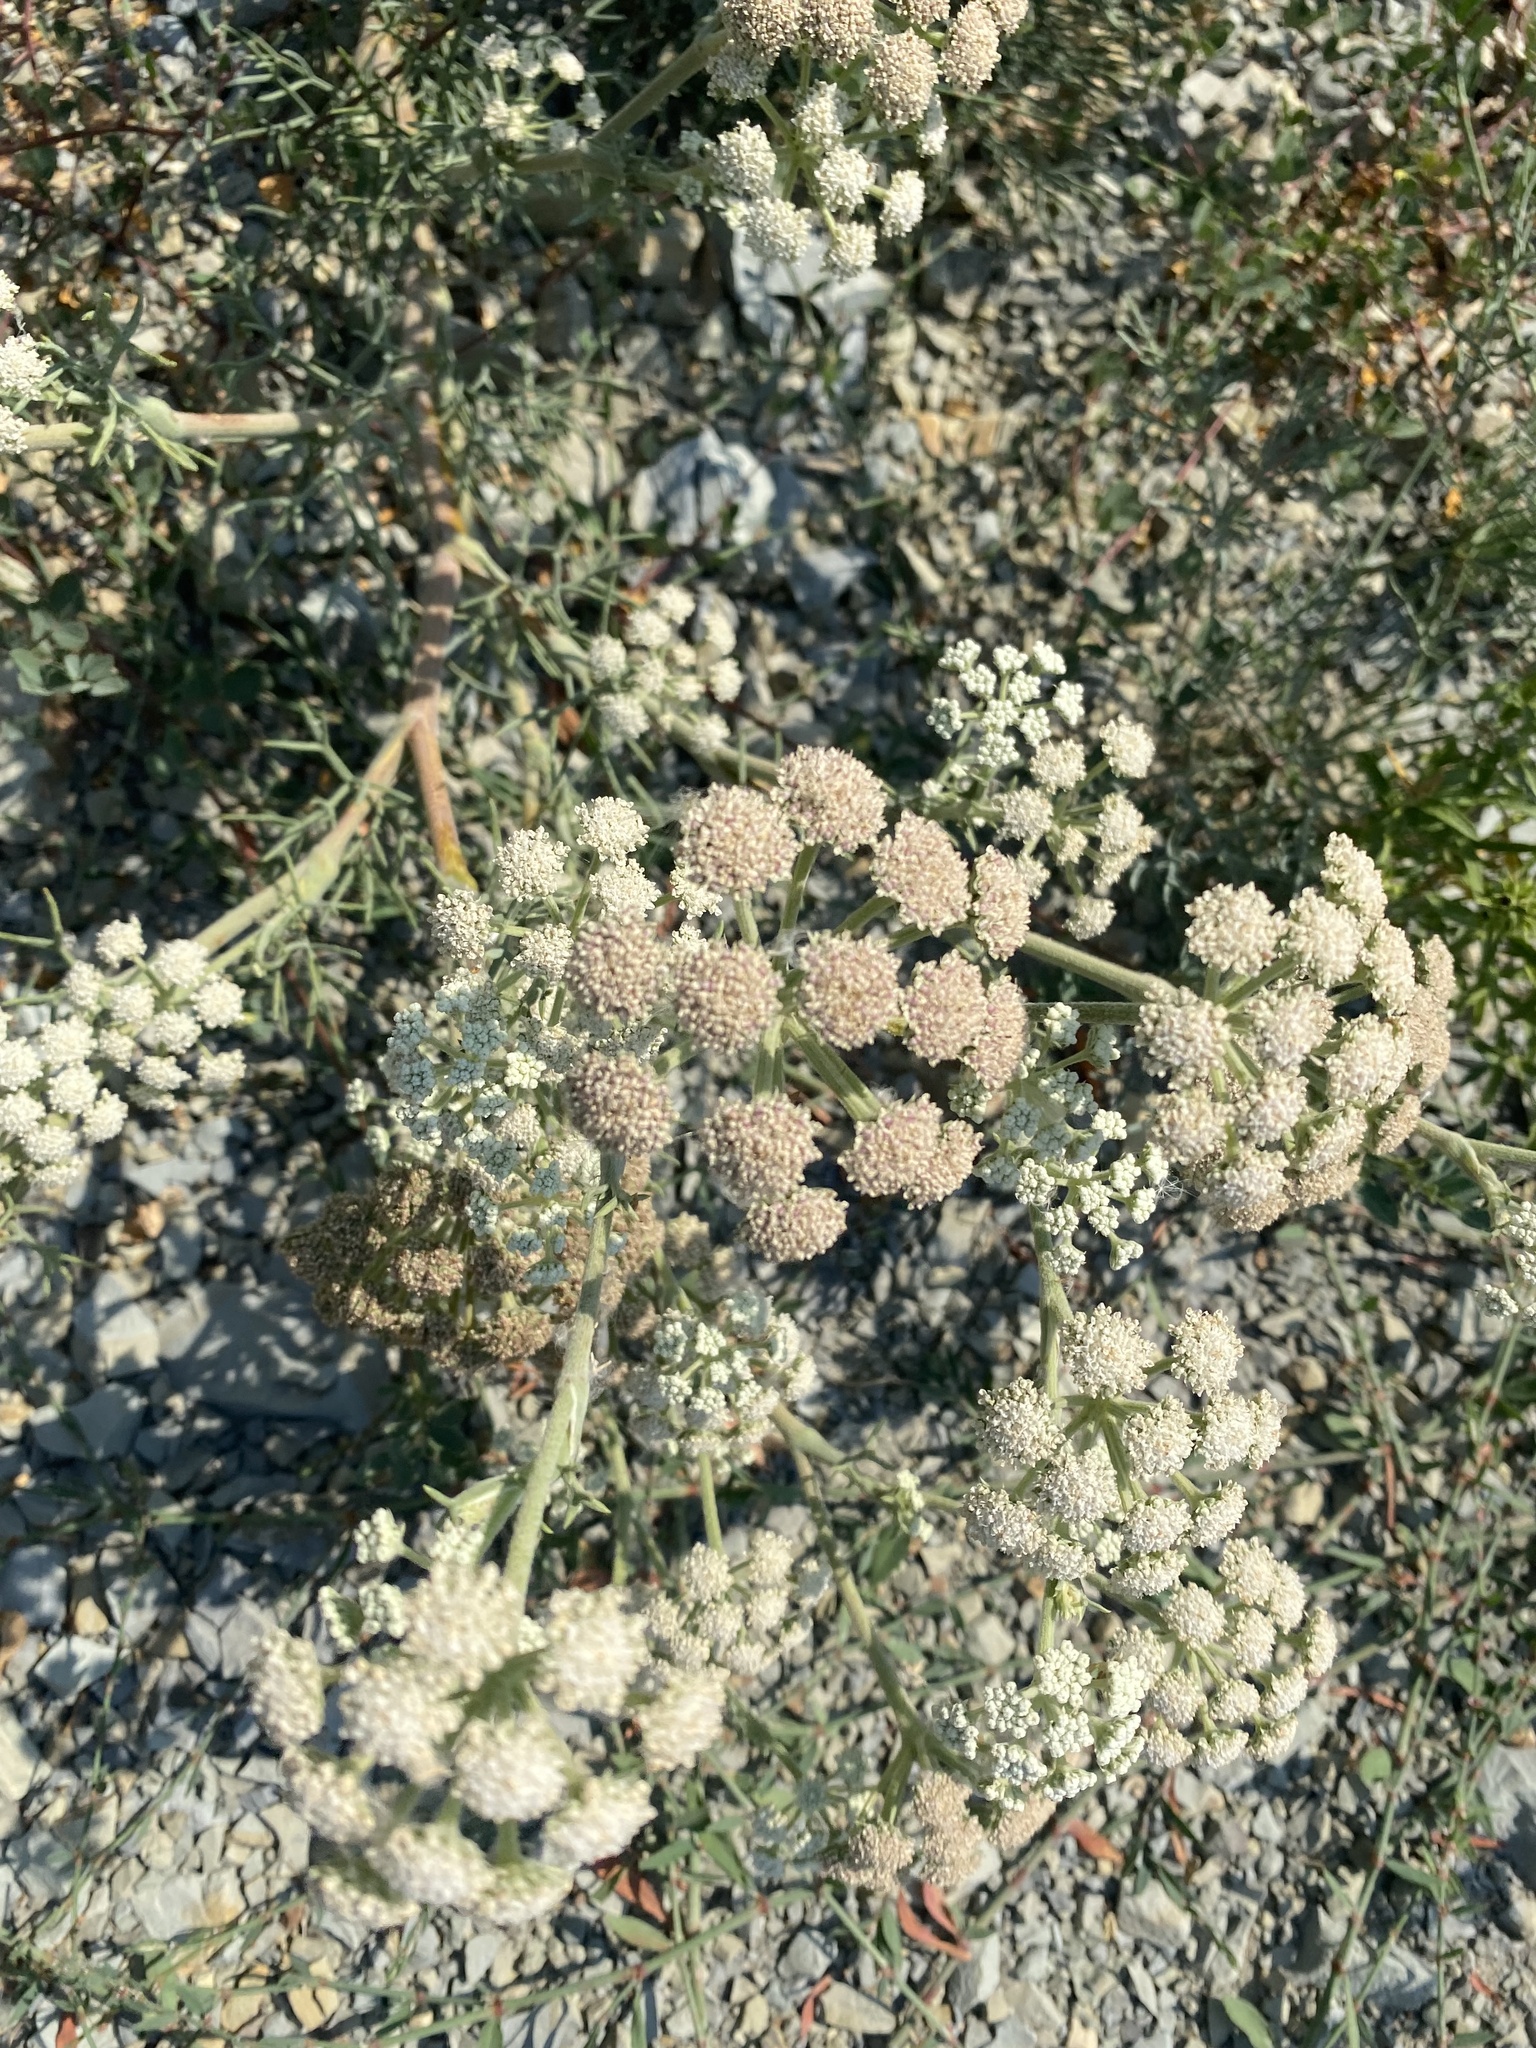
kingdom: Plantae
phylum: Tracheophyta
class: Magnoliopsida
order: Apiales
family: Apiaceae
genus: Seseli
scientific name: Seseli ponticum
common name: Pontic seseli
